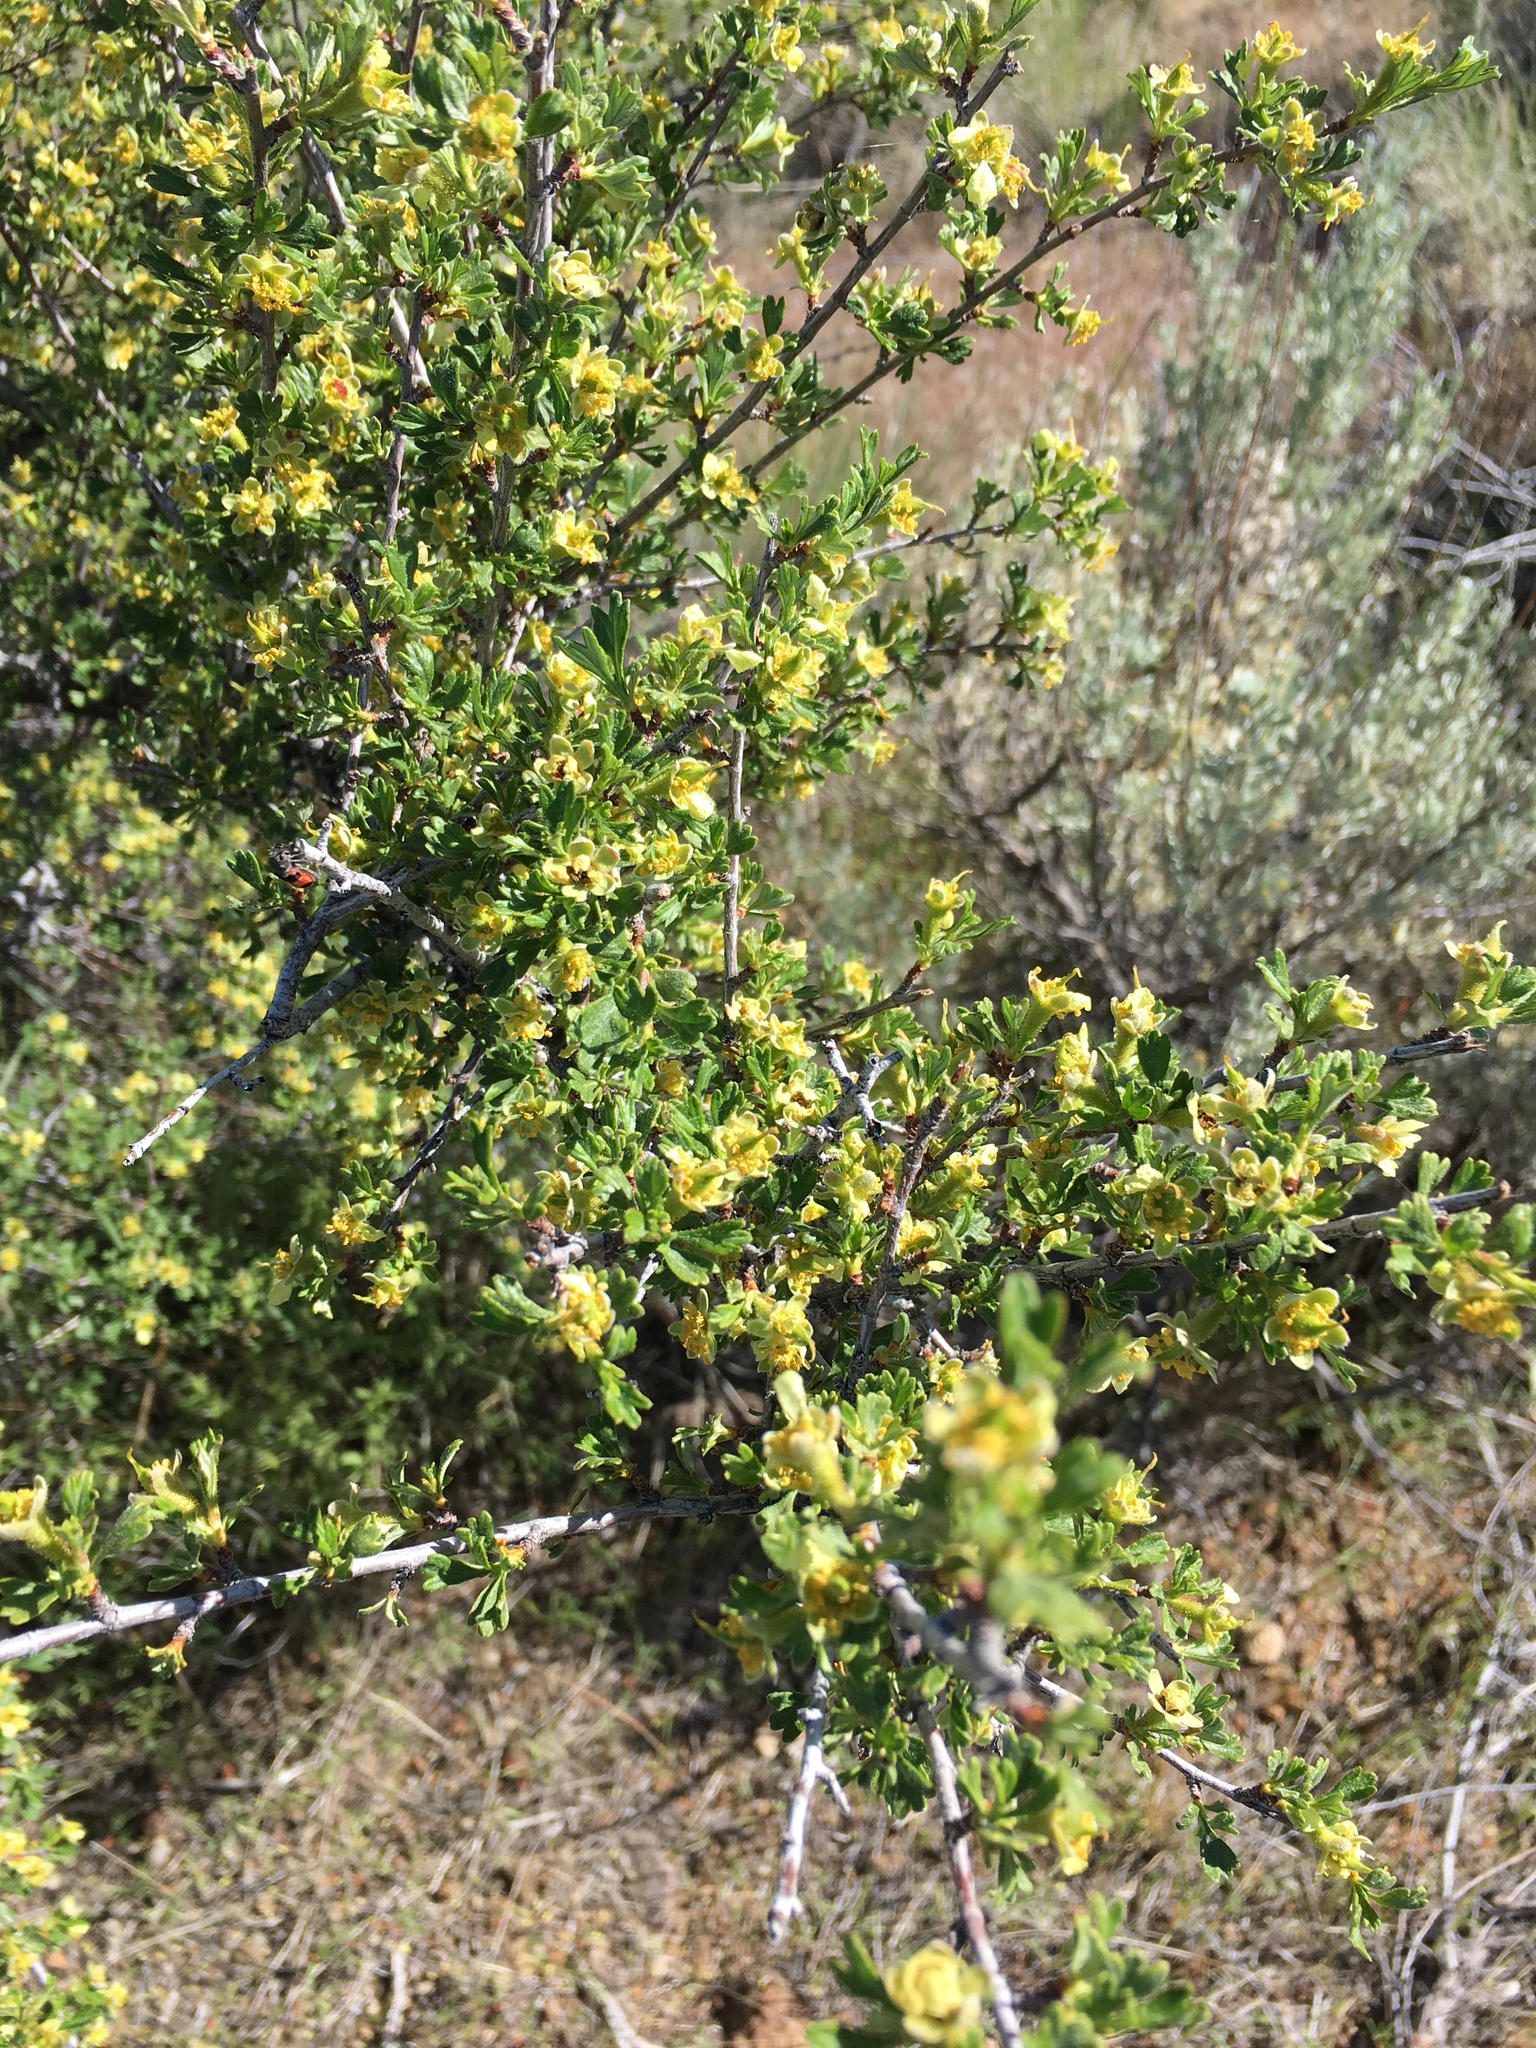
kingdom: Plantae
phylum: Tracheophyta
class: Magnoliopsida
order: Rosales
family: Rosaceae
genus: Purshia
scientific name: Purshia tridentata
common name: Antelope bitterbrush
